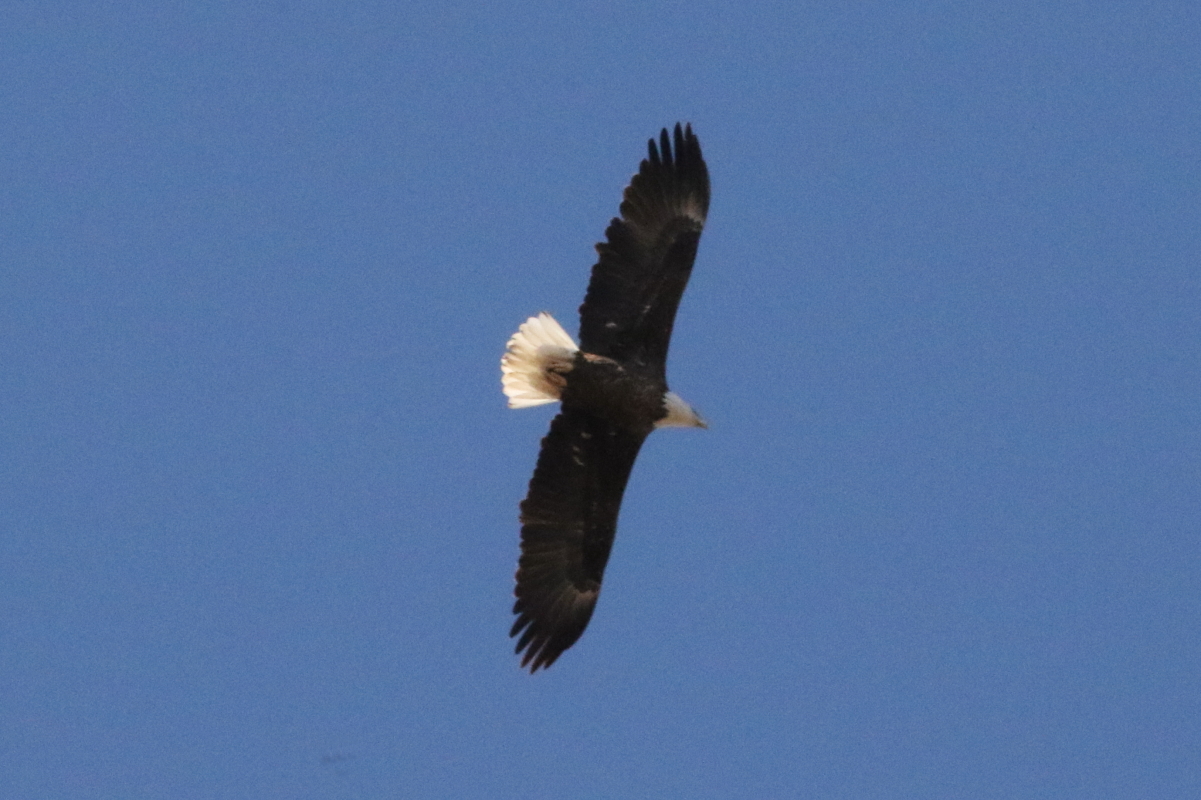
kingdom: Animalia
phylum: Chordata
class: Aves
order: Accipitriformes
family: Accipitridae
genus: Haliaeetus
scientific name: Haliaeetus leucocephalus
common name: Bald eagle
